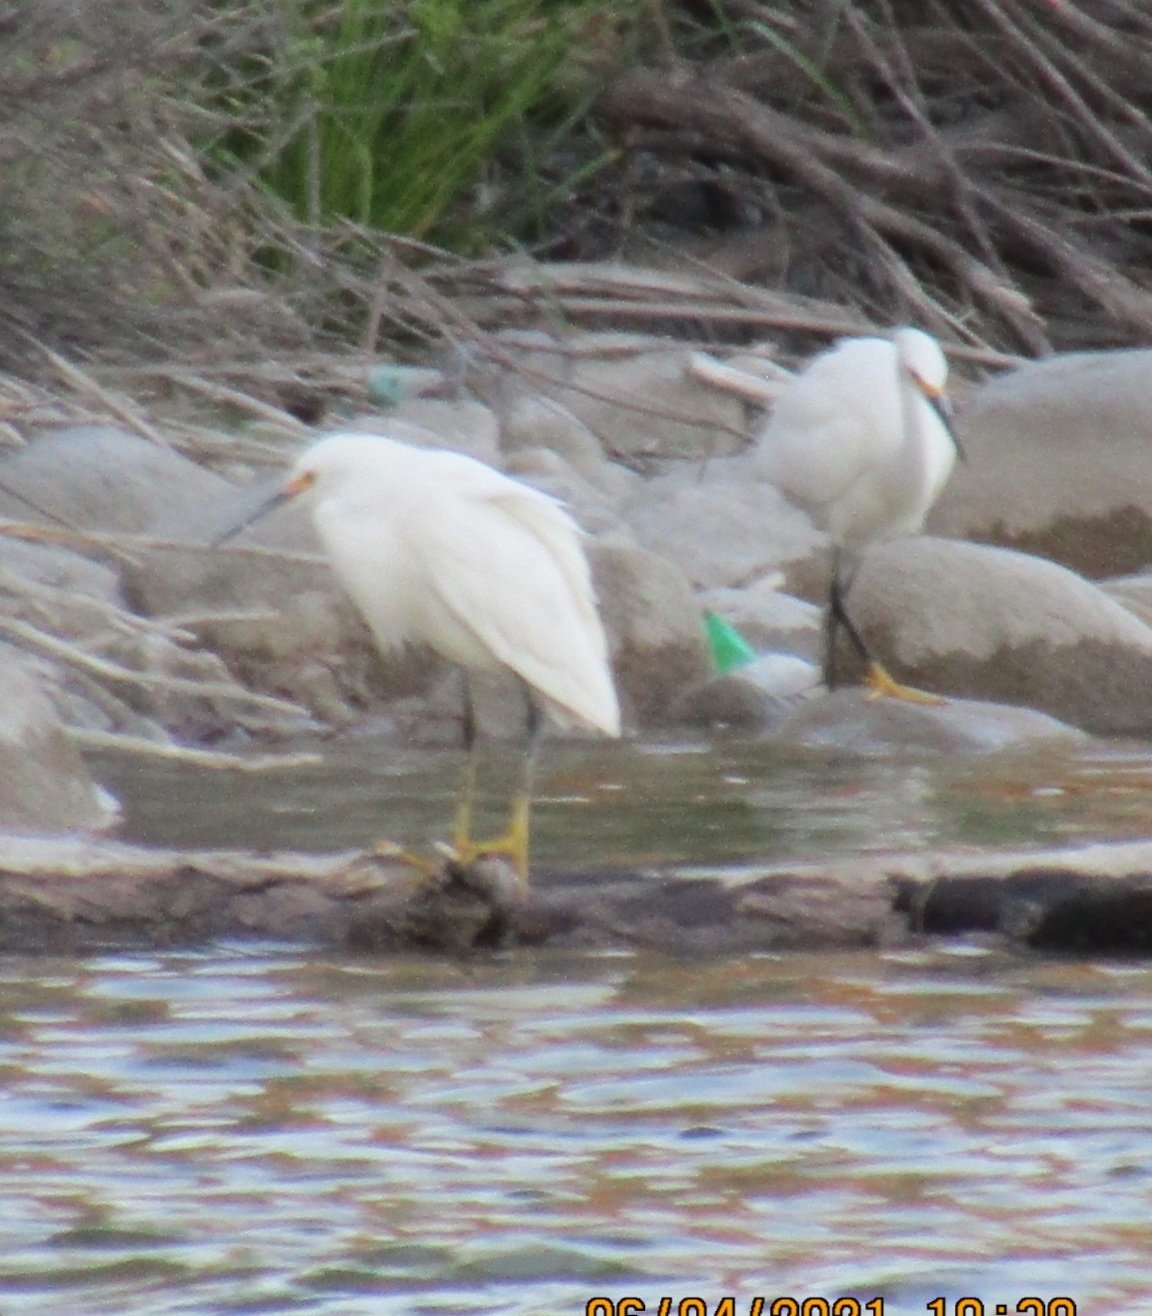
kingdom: Animalia
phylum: Chordata
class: Aves
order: Pelecaniformes
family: Ardeidae
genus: Egretta
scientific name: Egretta thula
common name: Snowy egret
